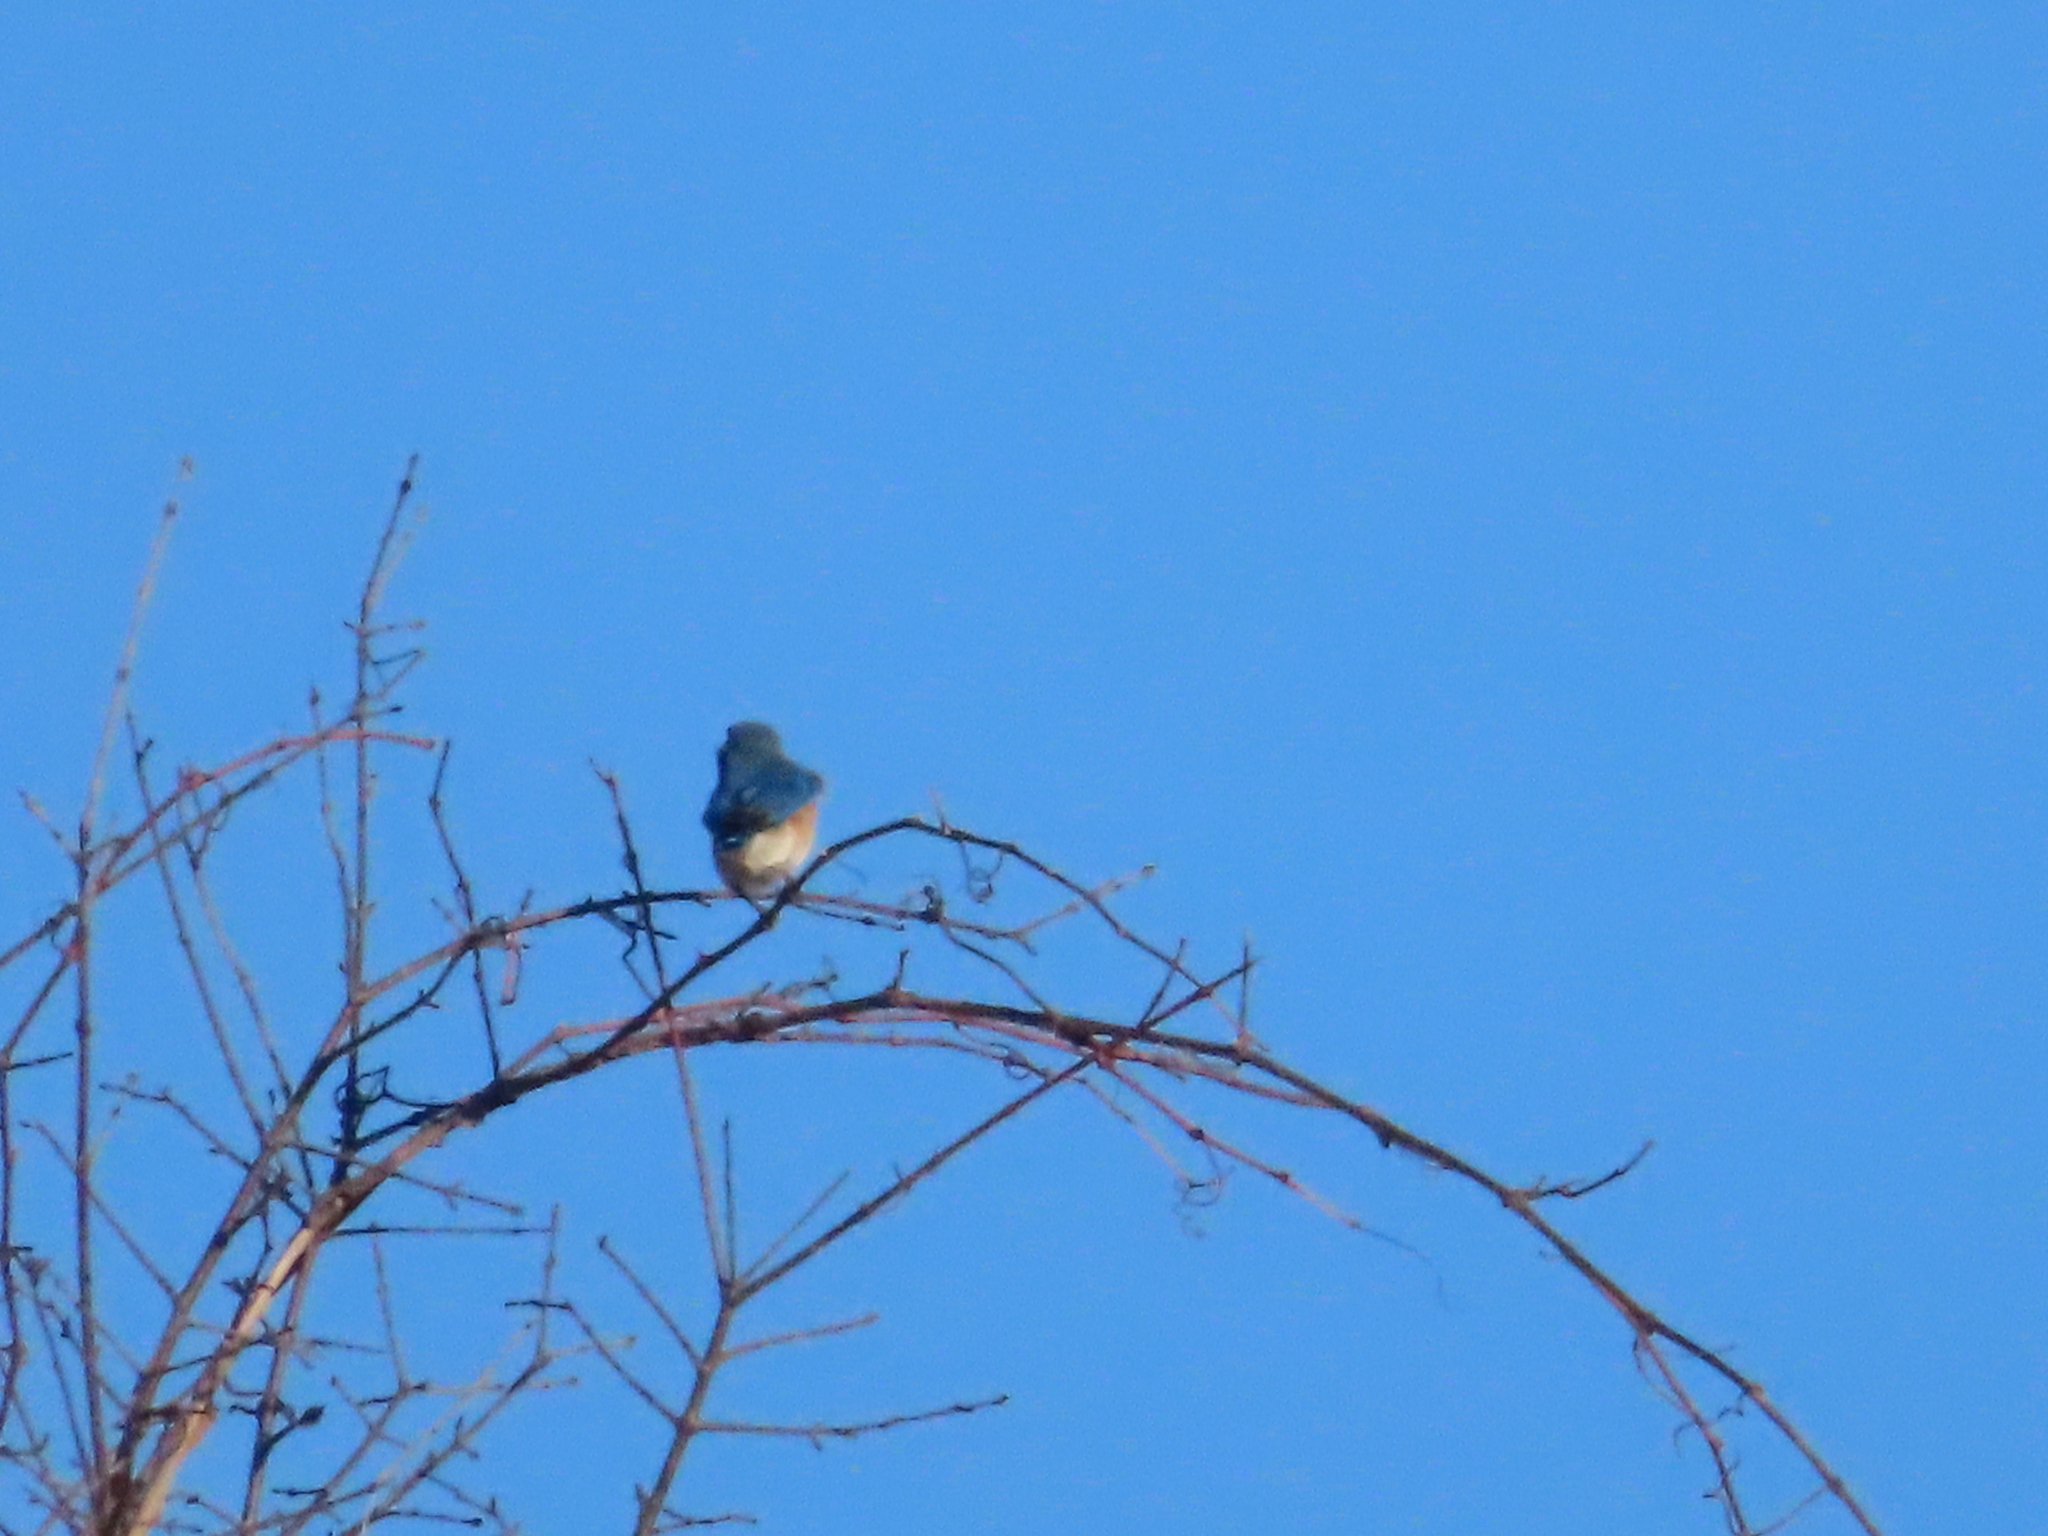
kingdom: Animalia
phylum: Chordata
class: Aves
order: Passeriformes
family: Turdidae
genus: Sialia
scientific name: Sialia sialis
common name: Eastern bluebird
